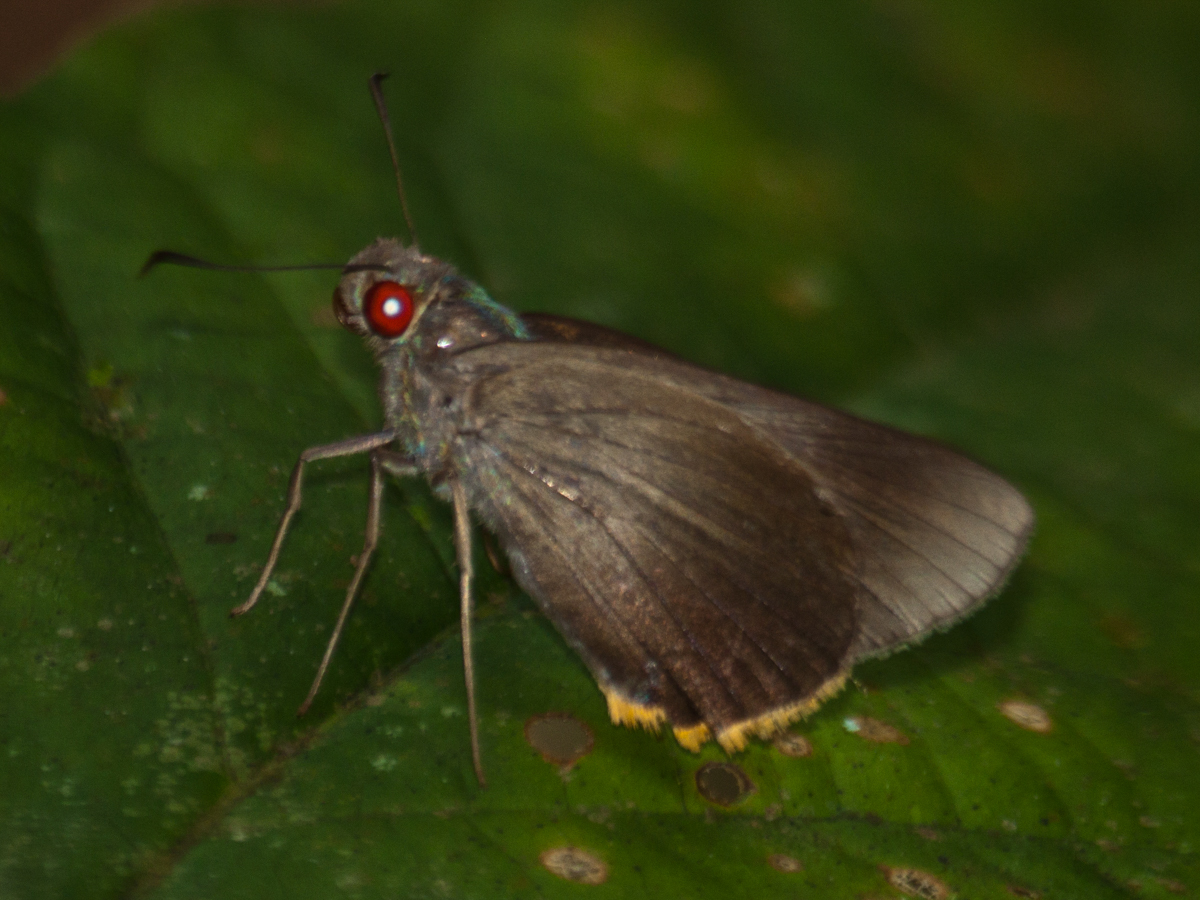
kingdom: Animalia
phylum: Arthropoda
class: Insecta
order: Lepidoptera
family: Hesperiidae
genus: Matapa
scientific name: Matapa cresta
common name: Fringed redeye
